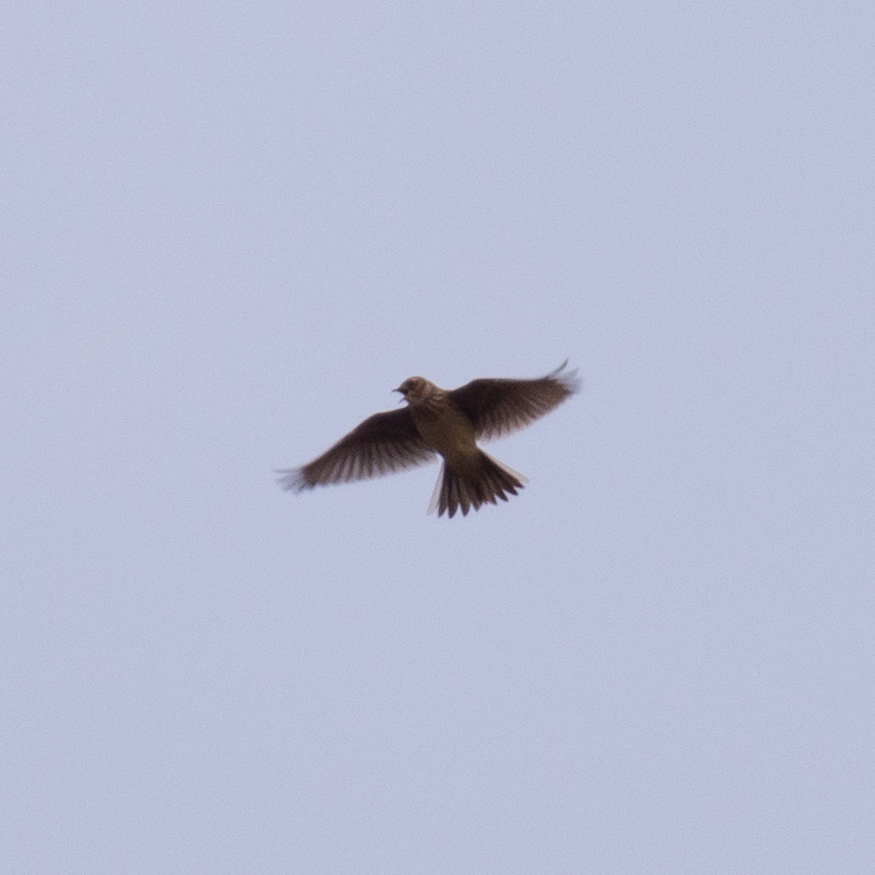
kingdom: Animalia
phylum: Chordata
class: Aves
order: Passeriformes
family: Alaudidae
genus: Alauda
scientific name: Alauda arvensis
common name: Eurasian skylark
